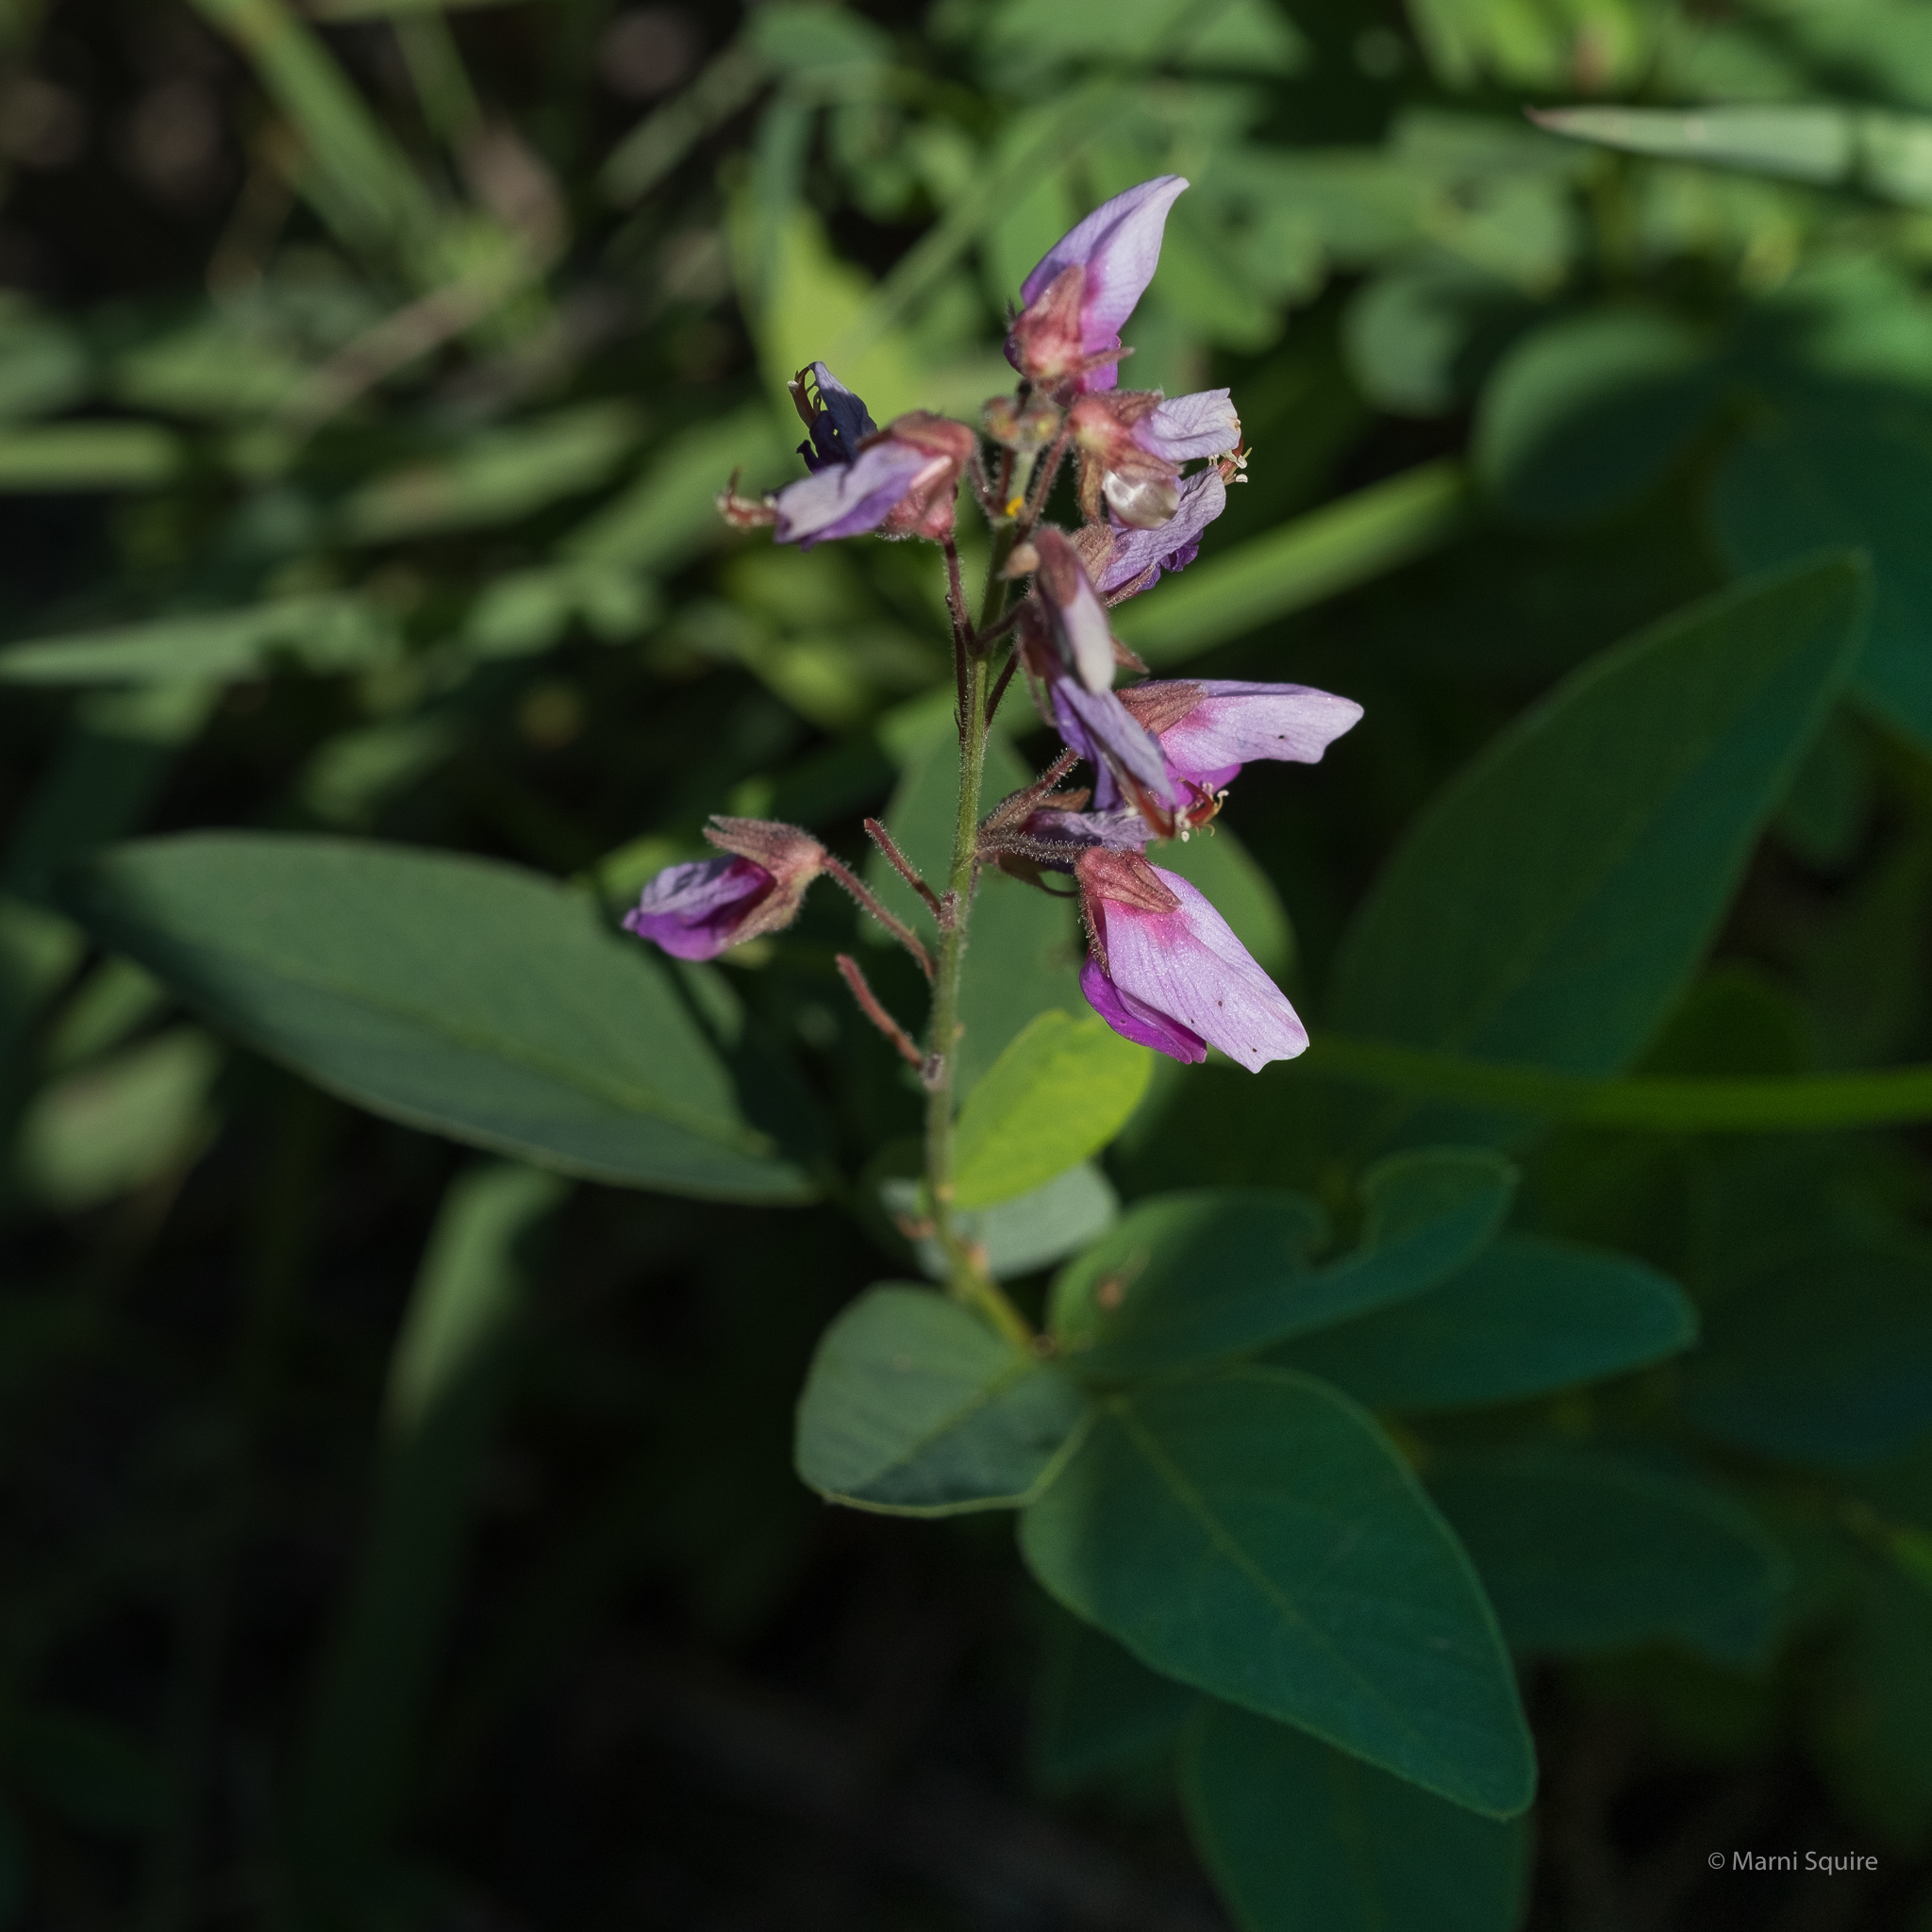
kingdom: Plantae
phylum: Tracheophyta
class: Magnoliopsida
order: Fabales
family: Fabaceae
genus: Desmodium
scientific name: Desmodium canadense
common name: Canada tick-trefoil
